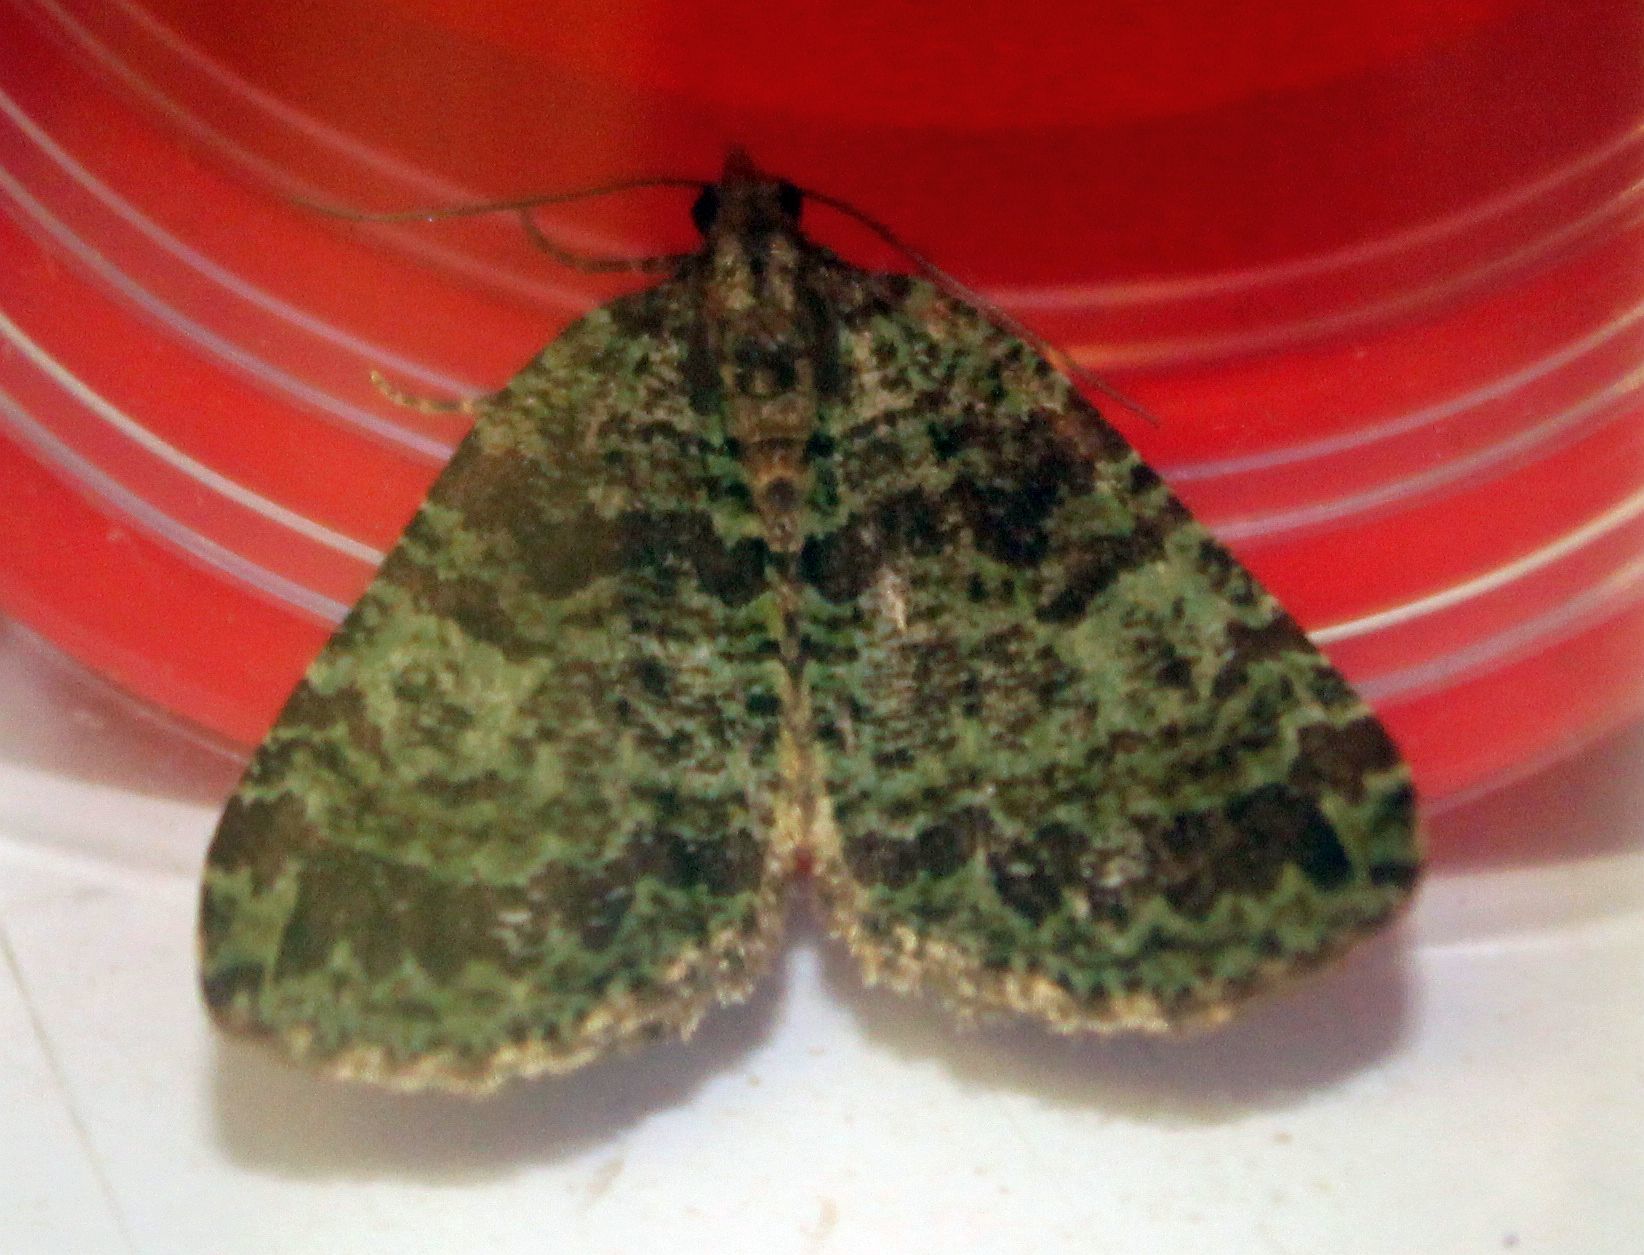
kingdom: Animalia
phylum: Arthropoda
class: Insecta
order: Lepidoptera
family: Geometridae
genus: Hydriomena
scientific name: Hydriomena furcata
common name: July highflyer
